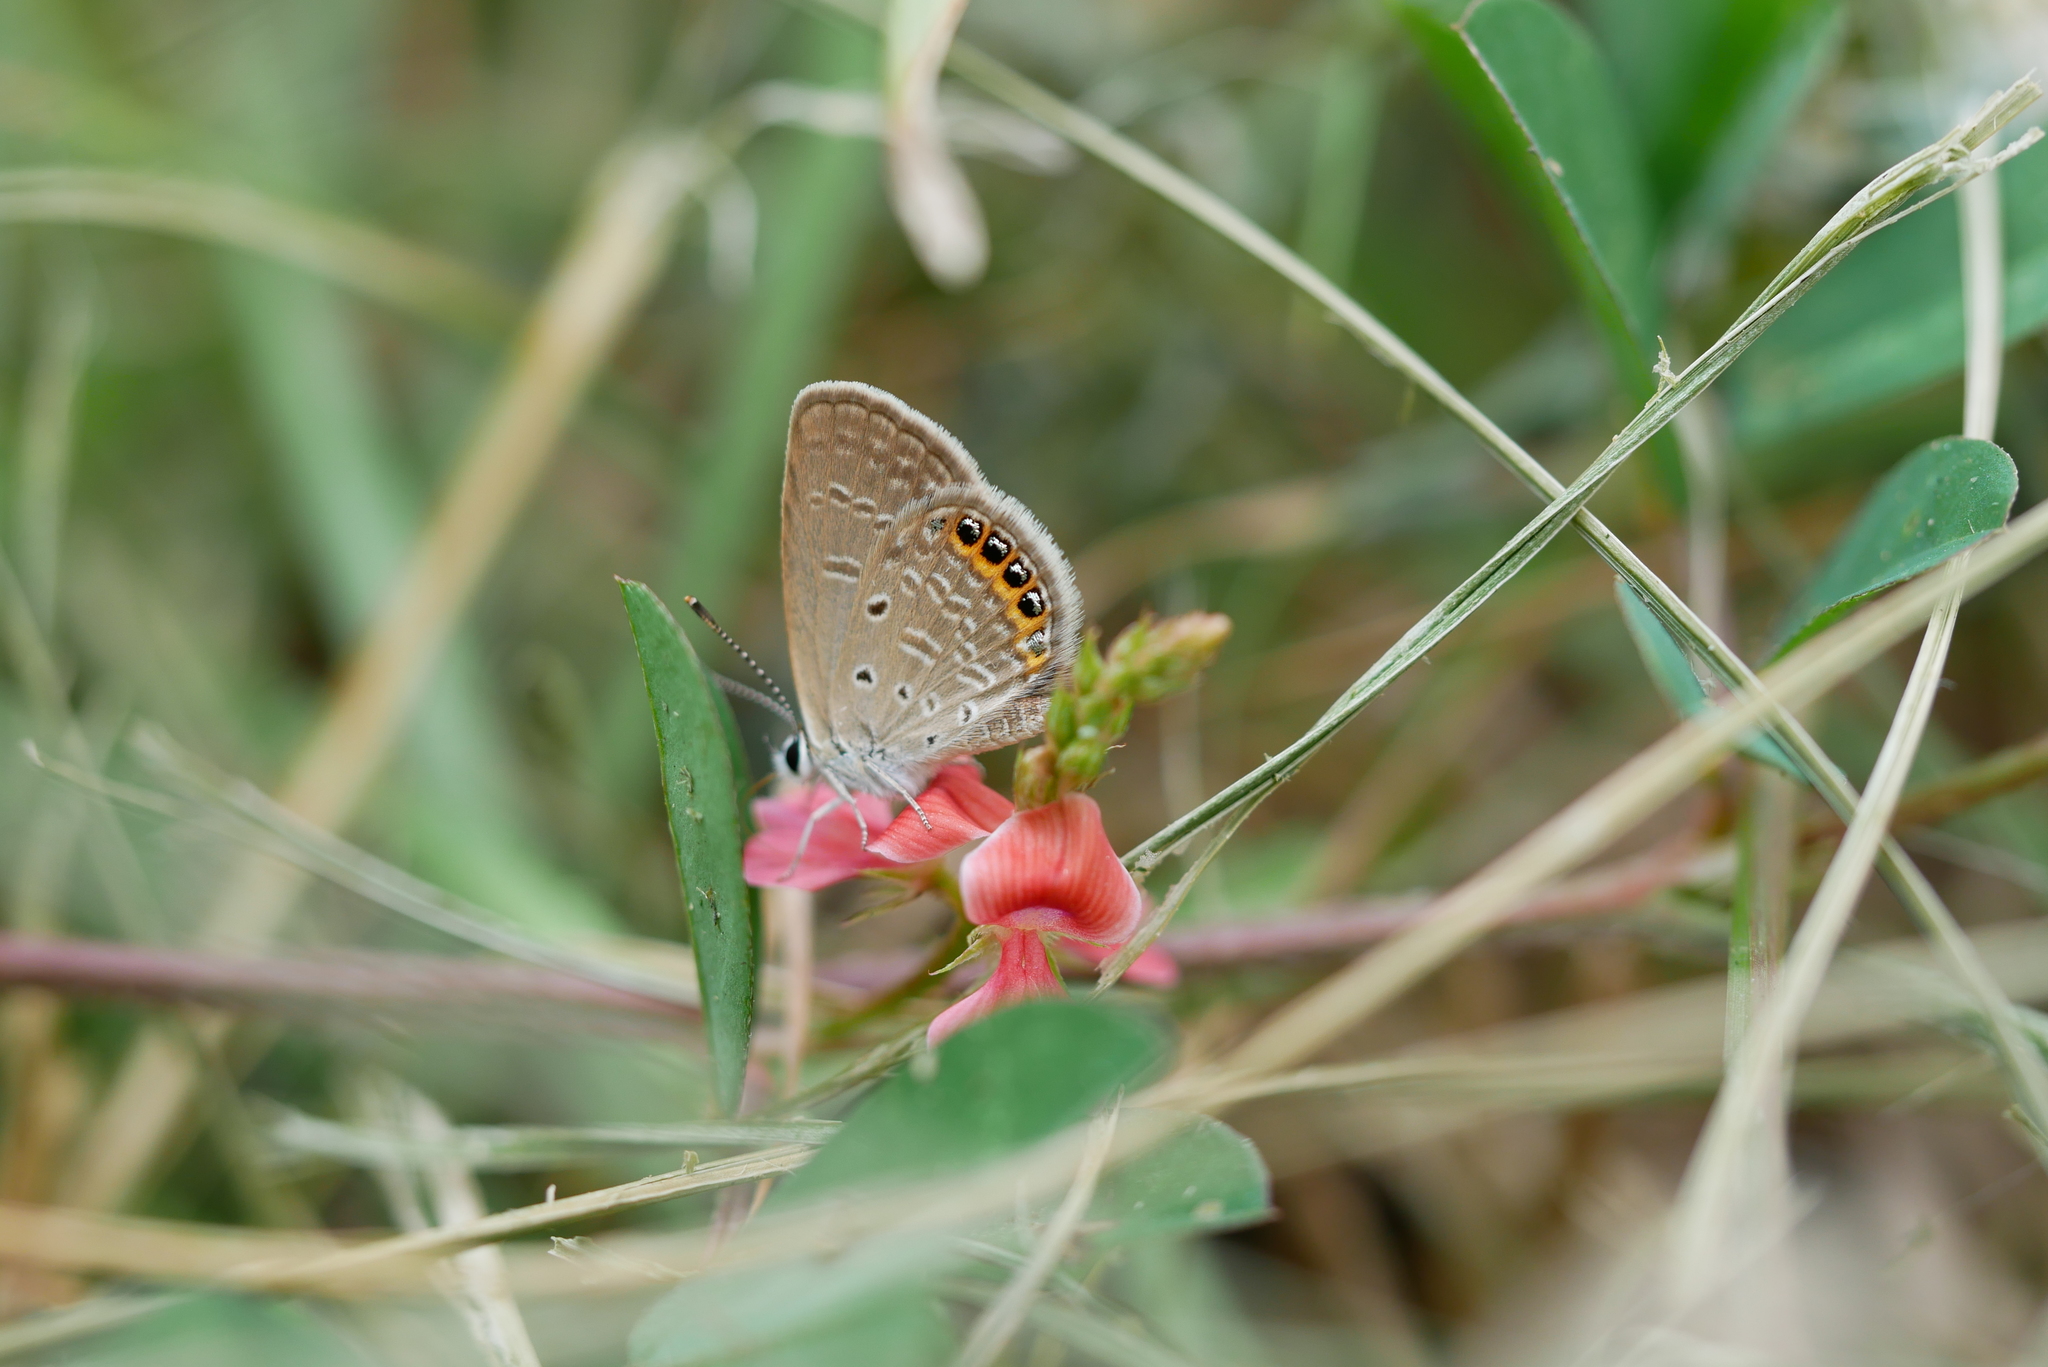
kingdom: Animalia
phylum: Arthropoda
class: Insecta
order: Lepidoptera
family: Lycaenidae
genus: Freyeria
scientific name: Freyeria putli
